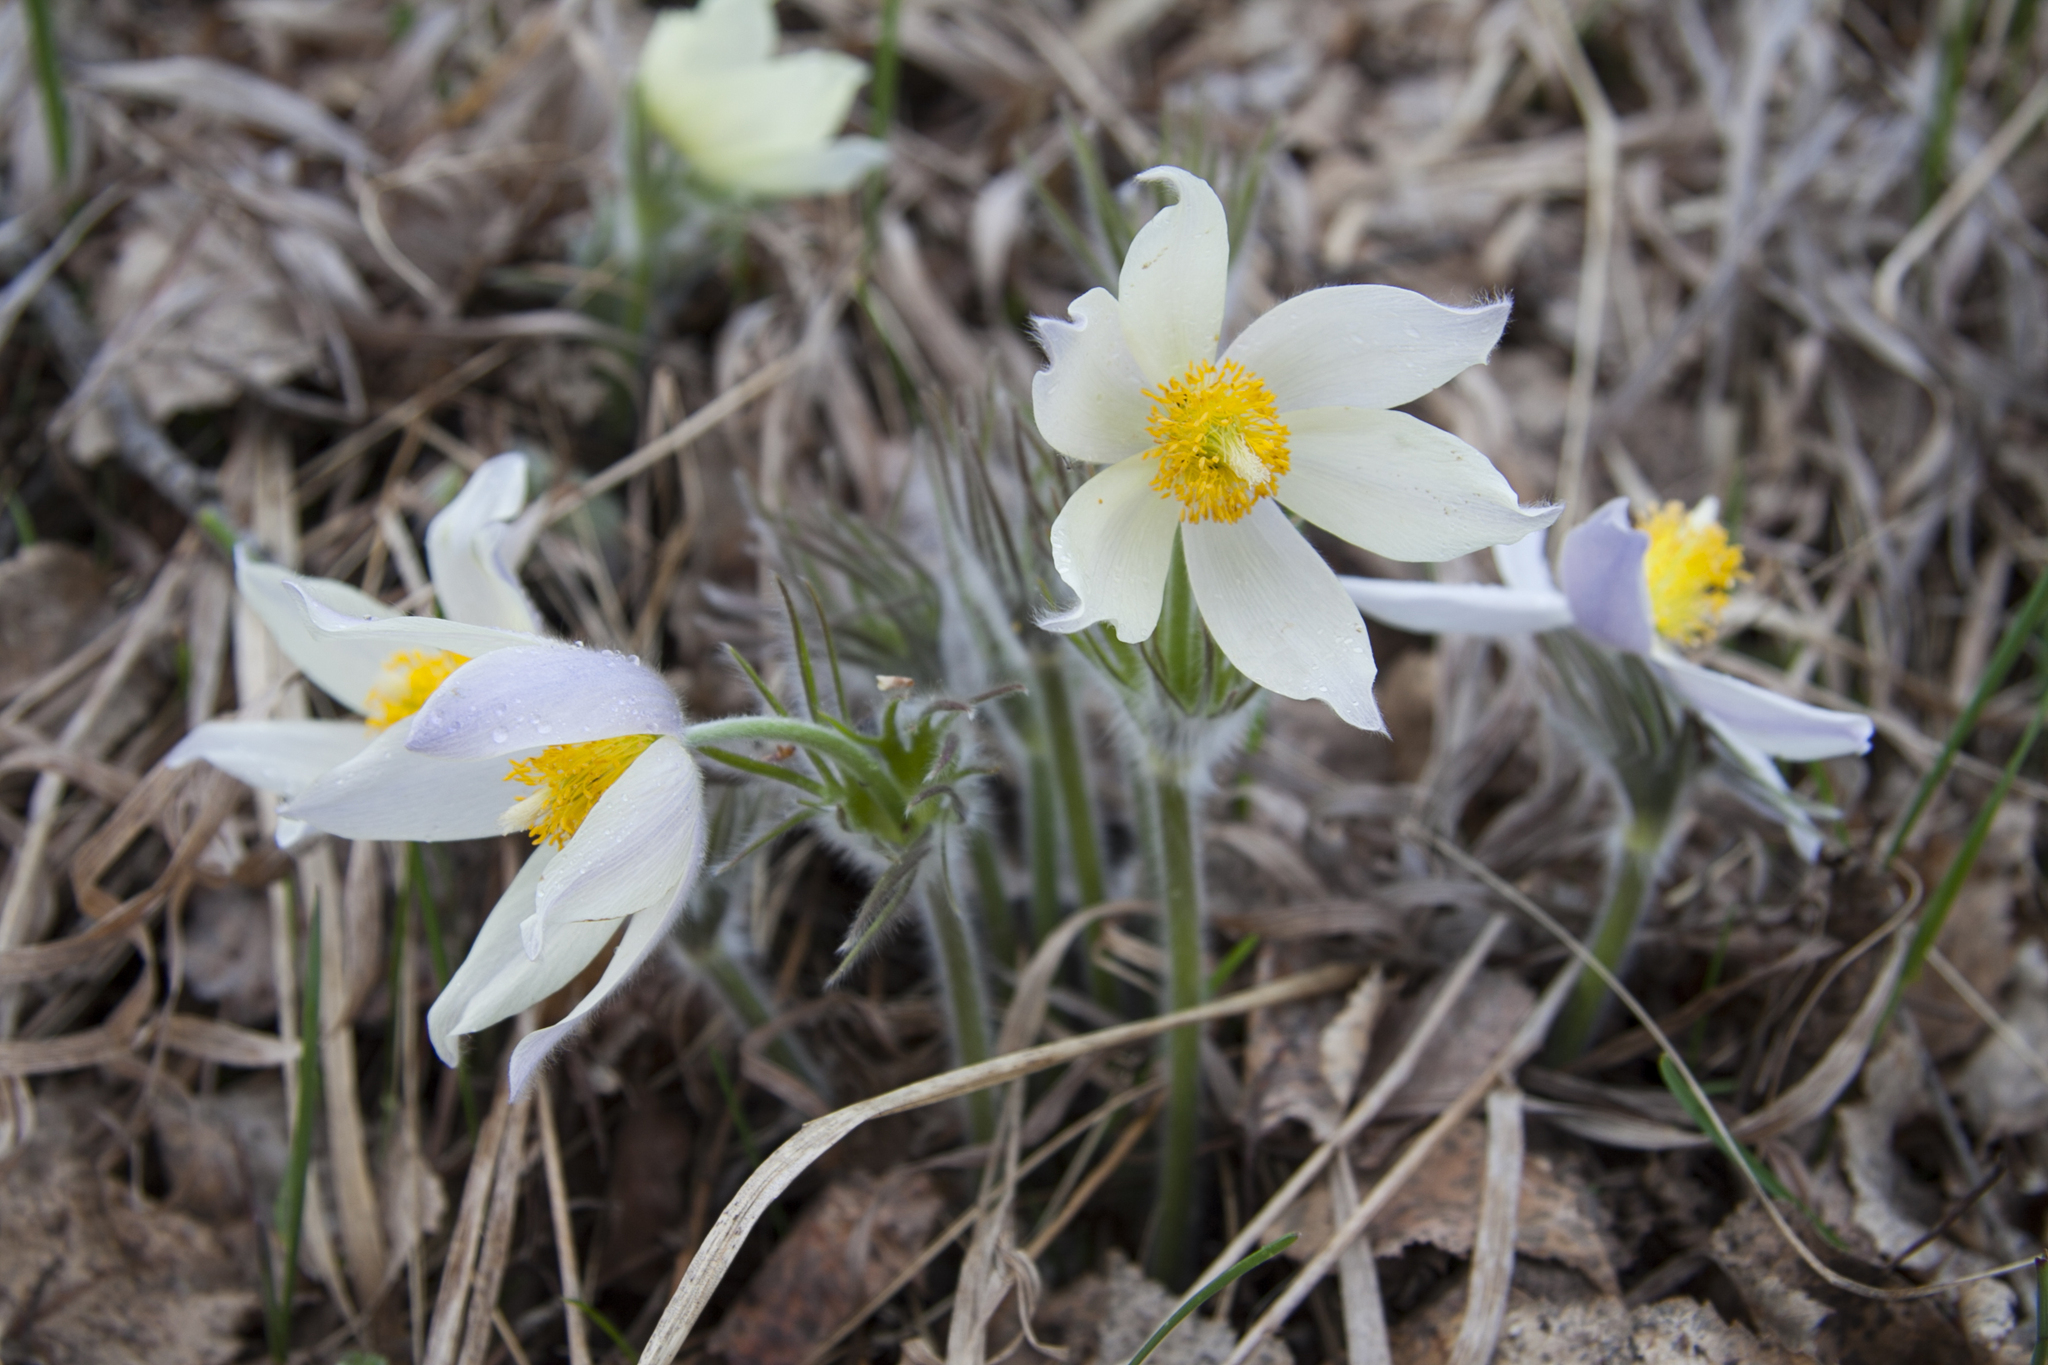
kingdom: Plantae
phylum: Tracheophyta
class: Magnoliopsida
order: Ranunculales
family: Ranunculaceae
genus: Pulsatilla
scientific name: Pulsatilla patens
